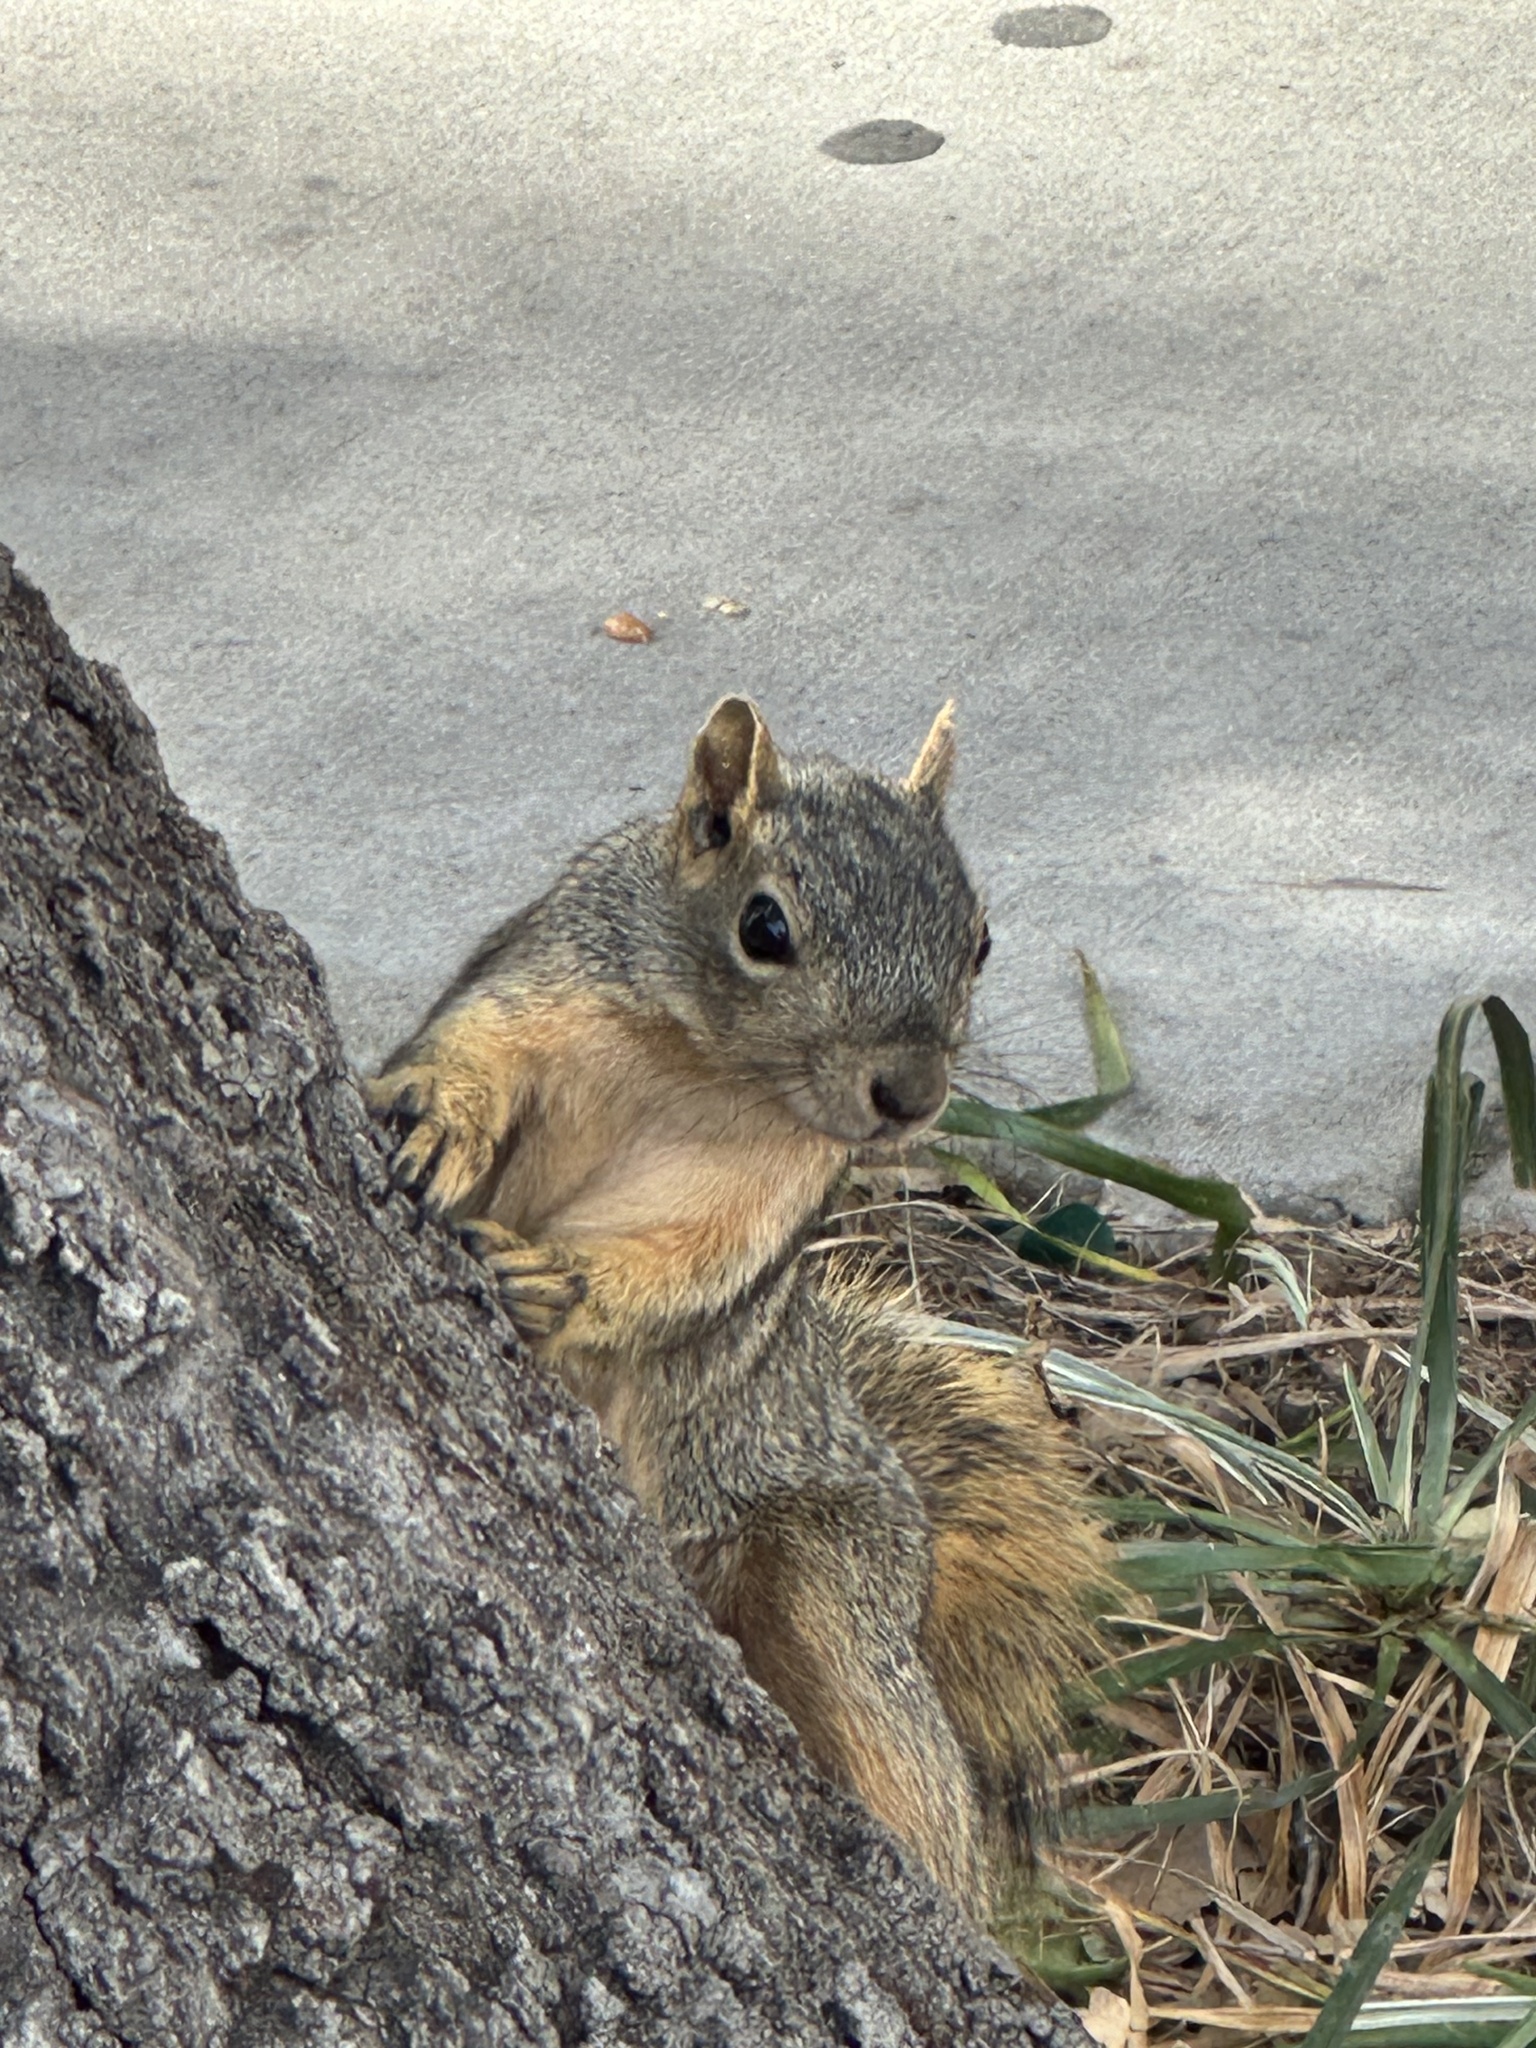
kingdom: Animalia
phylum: Chordata
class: Mammalia
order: Rodentia
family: Sciuridae
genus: Sciurus
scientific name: Sciurus niger
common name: Fox squirrel
